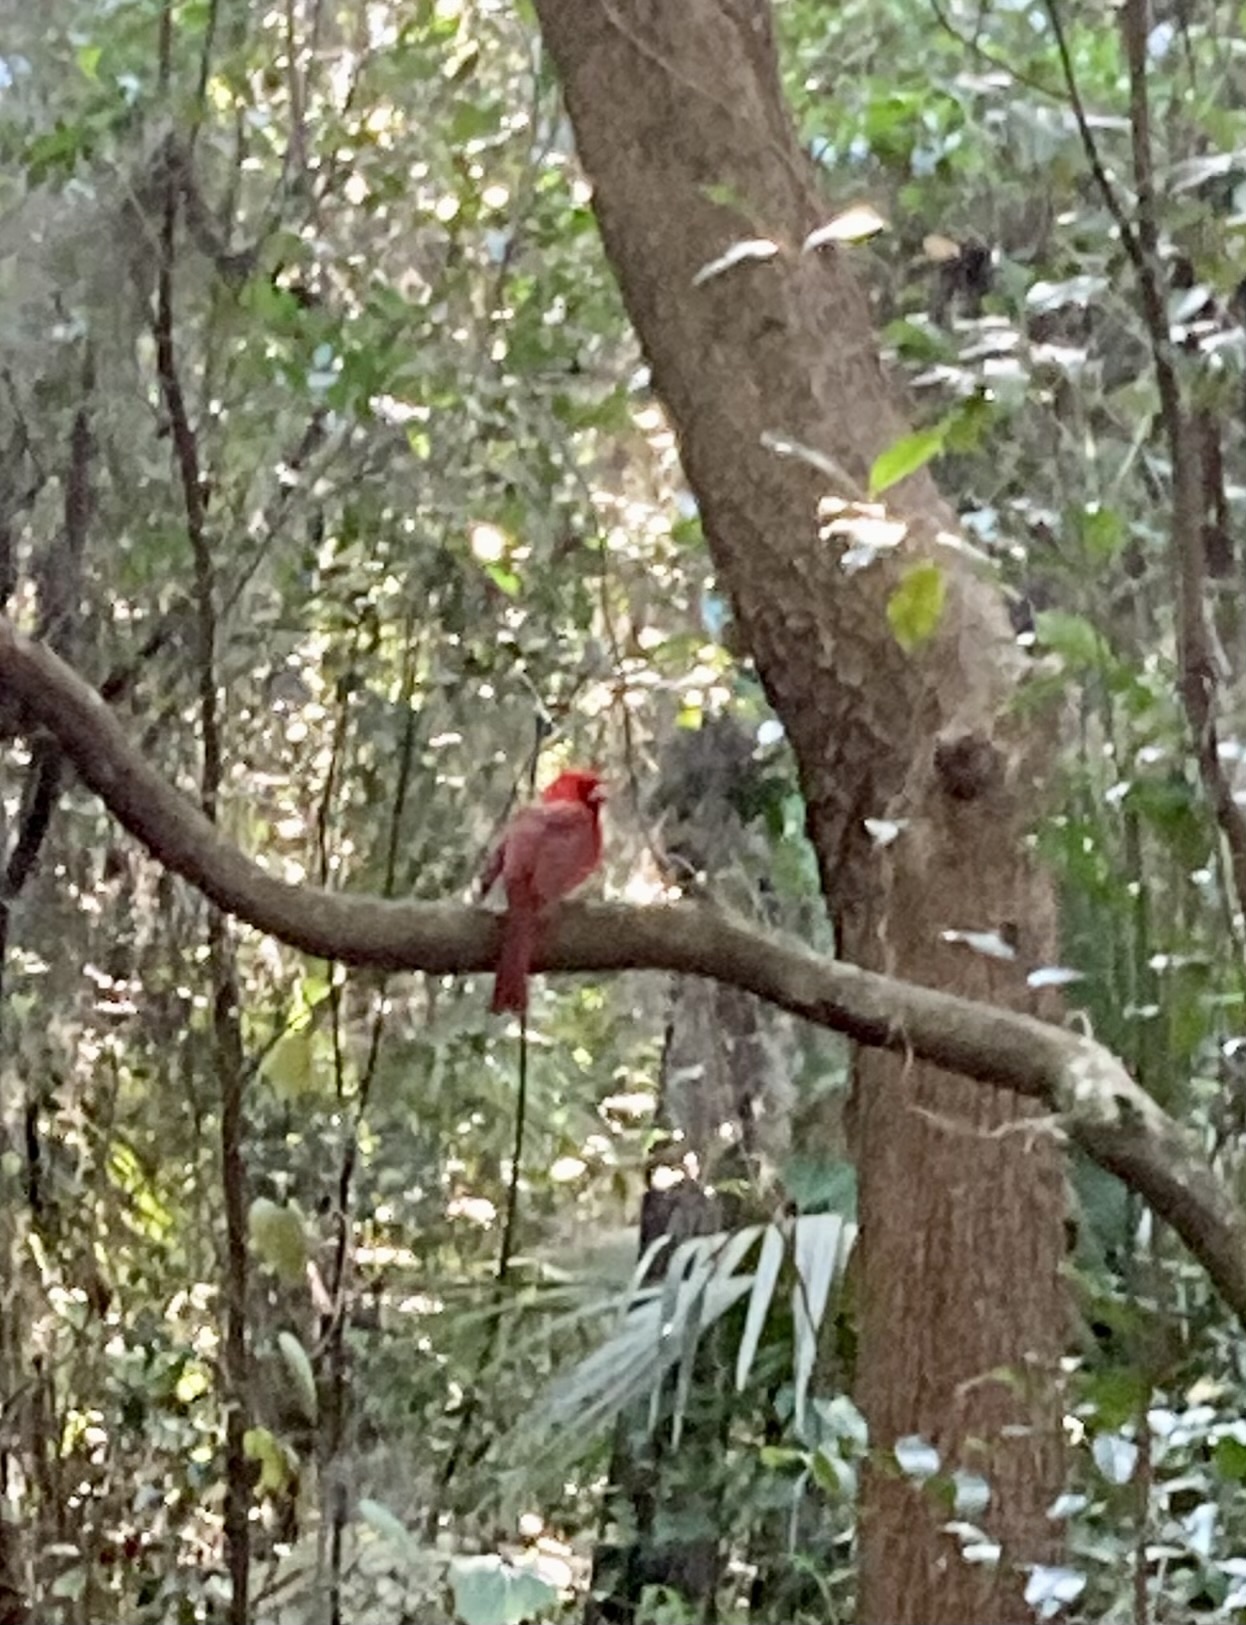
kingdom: Animalia
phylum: Chordata
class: Aves
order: Passeriformes
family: Cardinalidae
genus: Cardinalis
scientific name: Cardinalis cardinalis
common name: Northern cardinal
